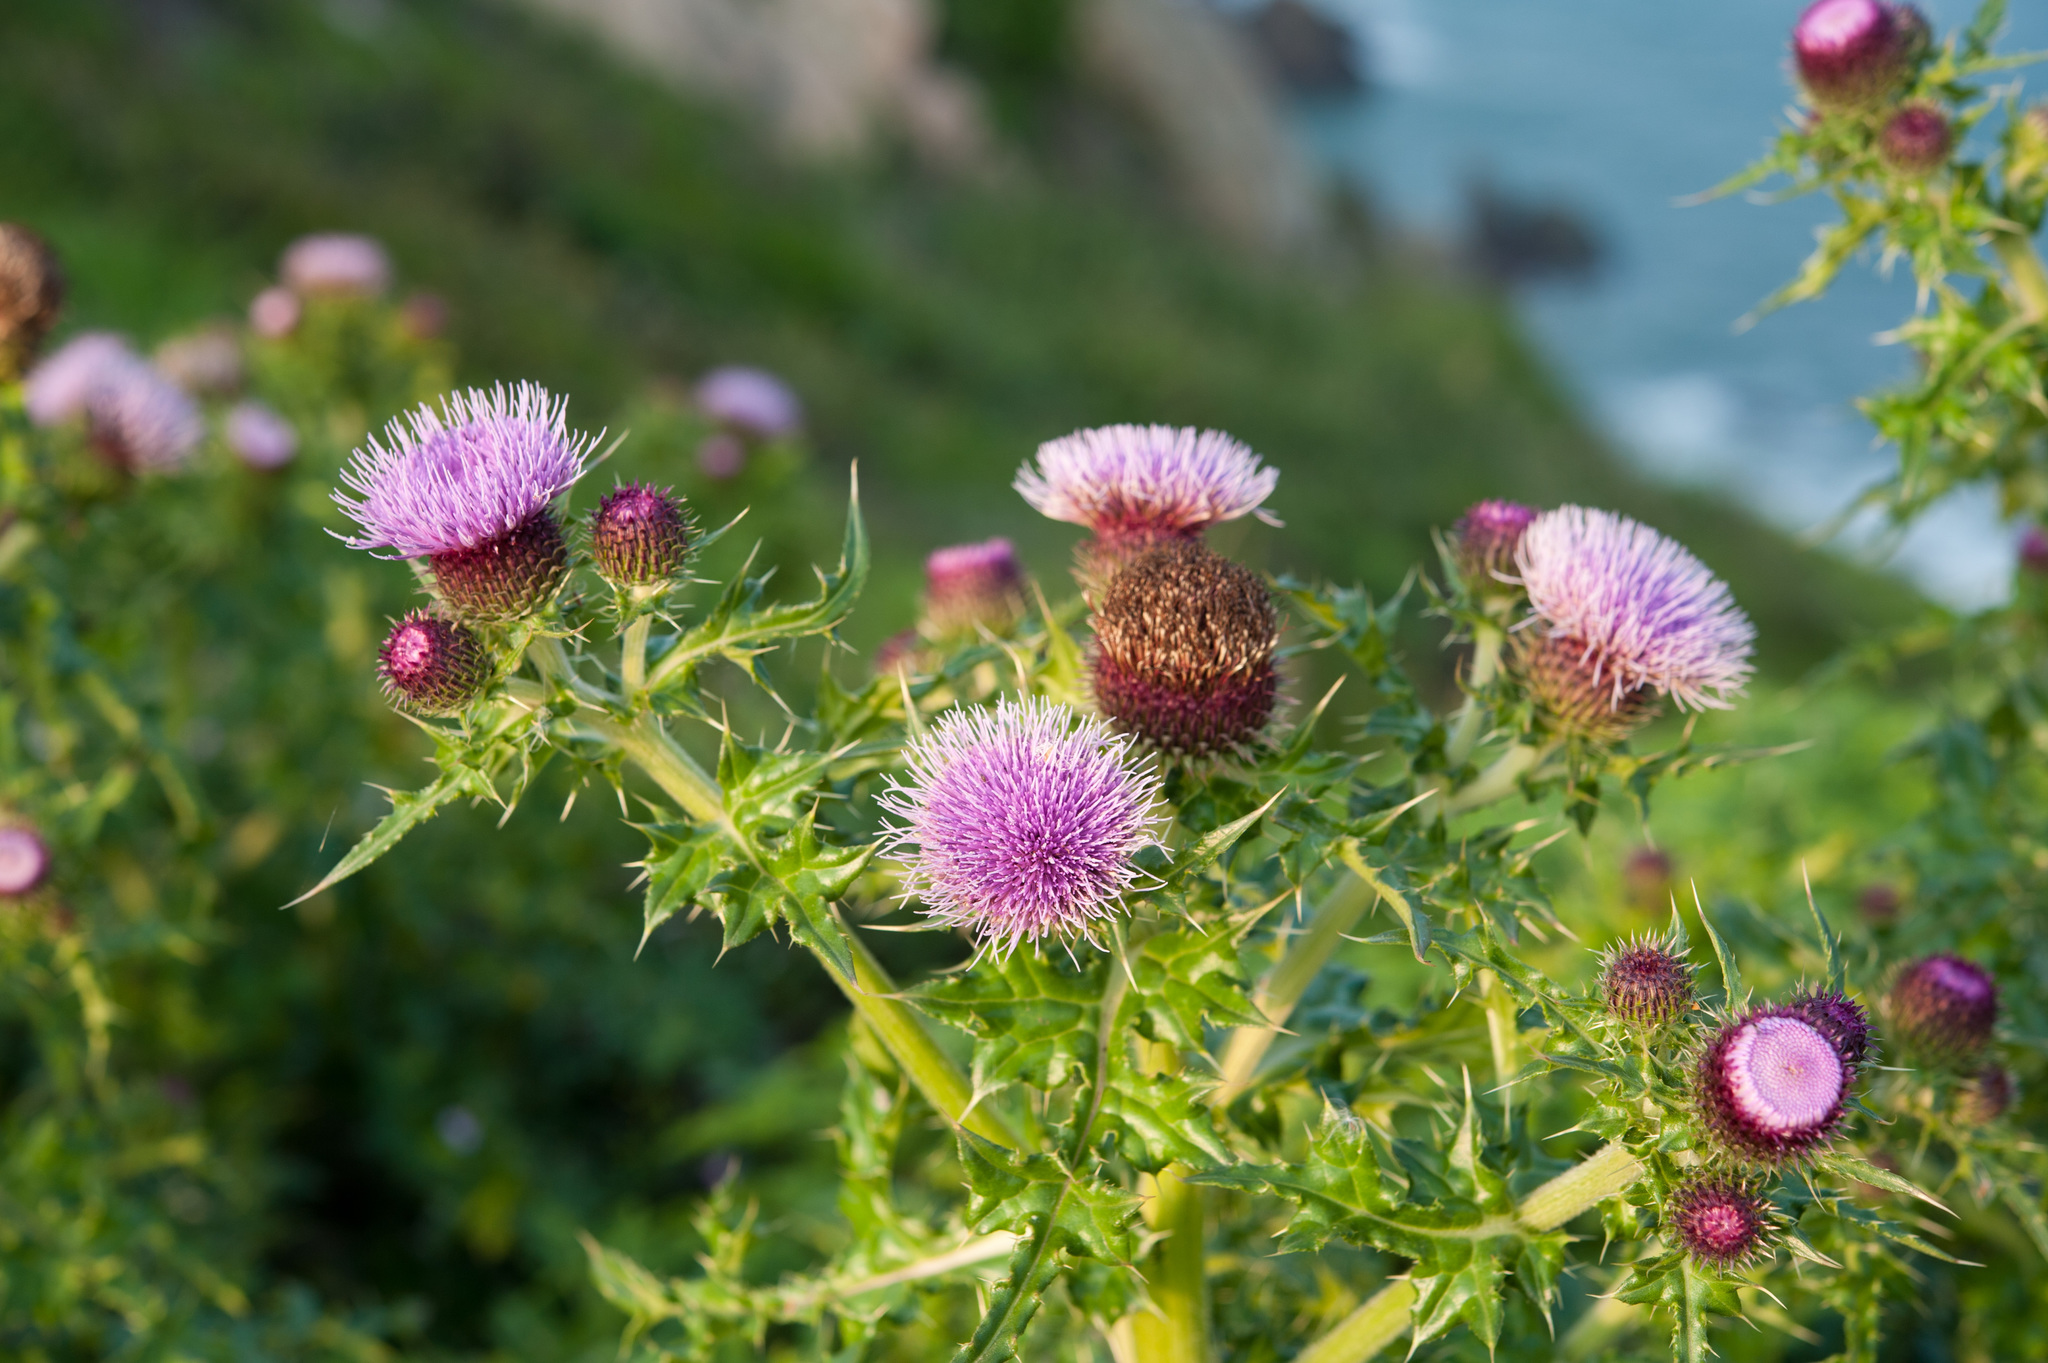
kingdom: Plantae
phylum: Tracheophyta
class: Magnoliopsida
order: Asterales
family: Asteraceae
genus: Cirsium
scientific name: Cirsium japonicum
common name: Japanese thistle
